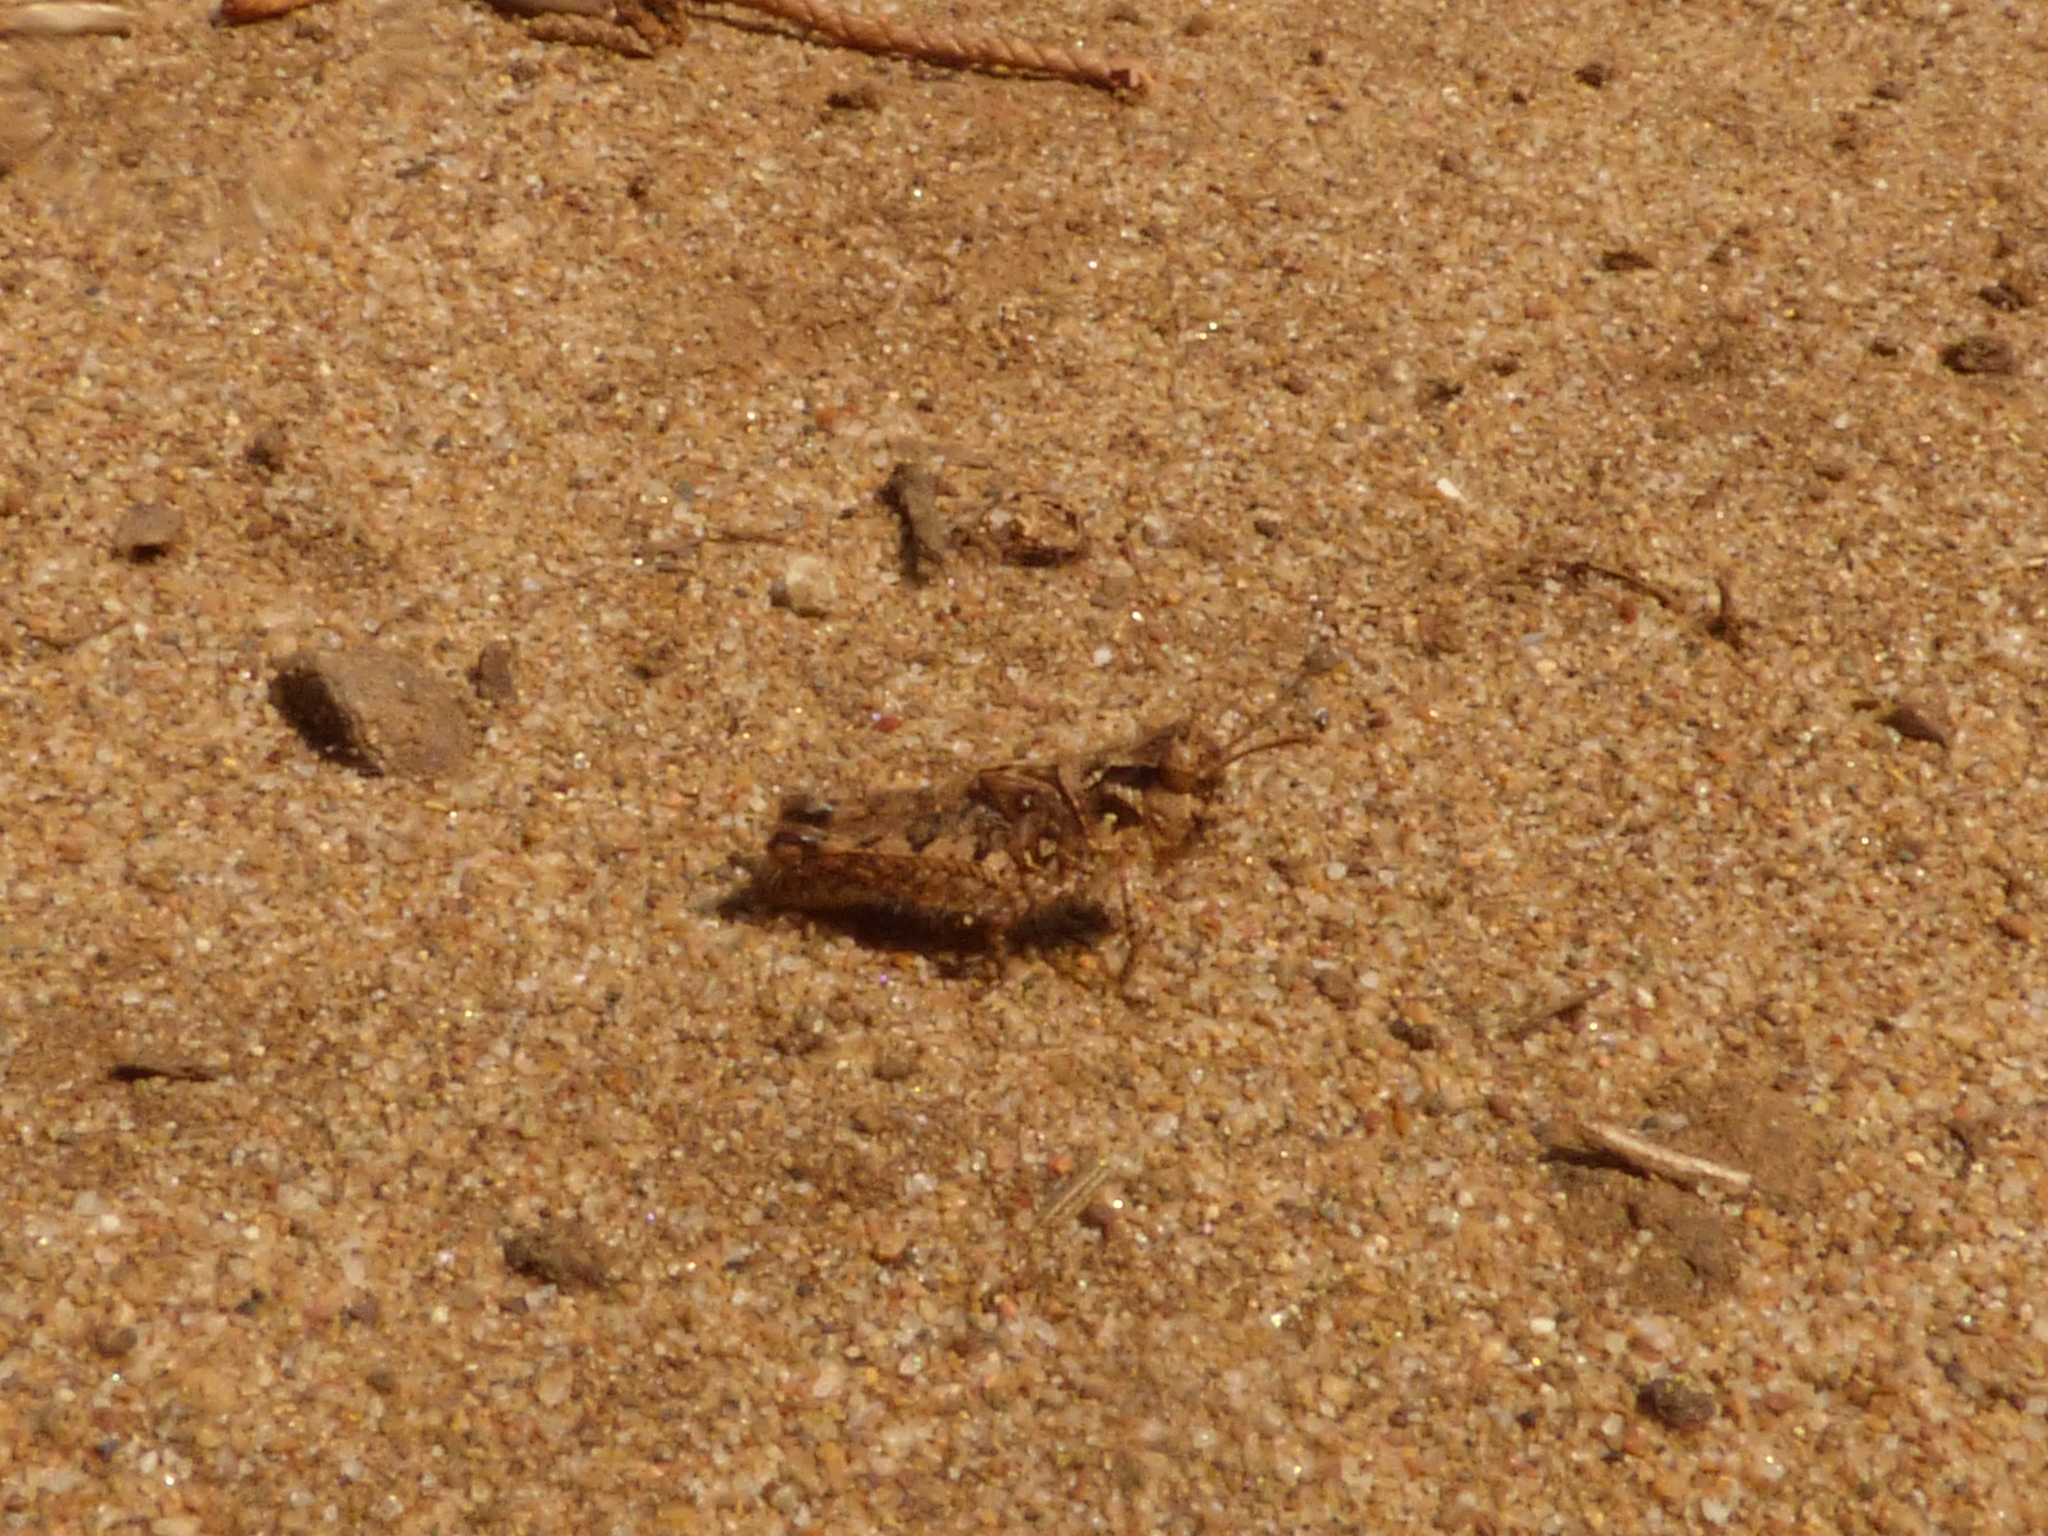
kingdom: Animalia
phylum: Arthropoda
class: Insecta
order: Orthoptera
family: Acrididae
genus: Acrotylus
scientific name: Acrotylus patruelis
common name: Slender burrowing grasshopper
